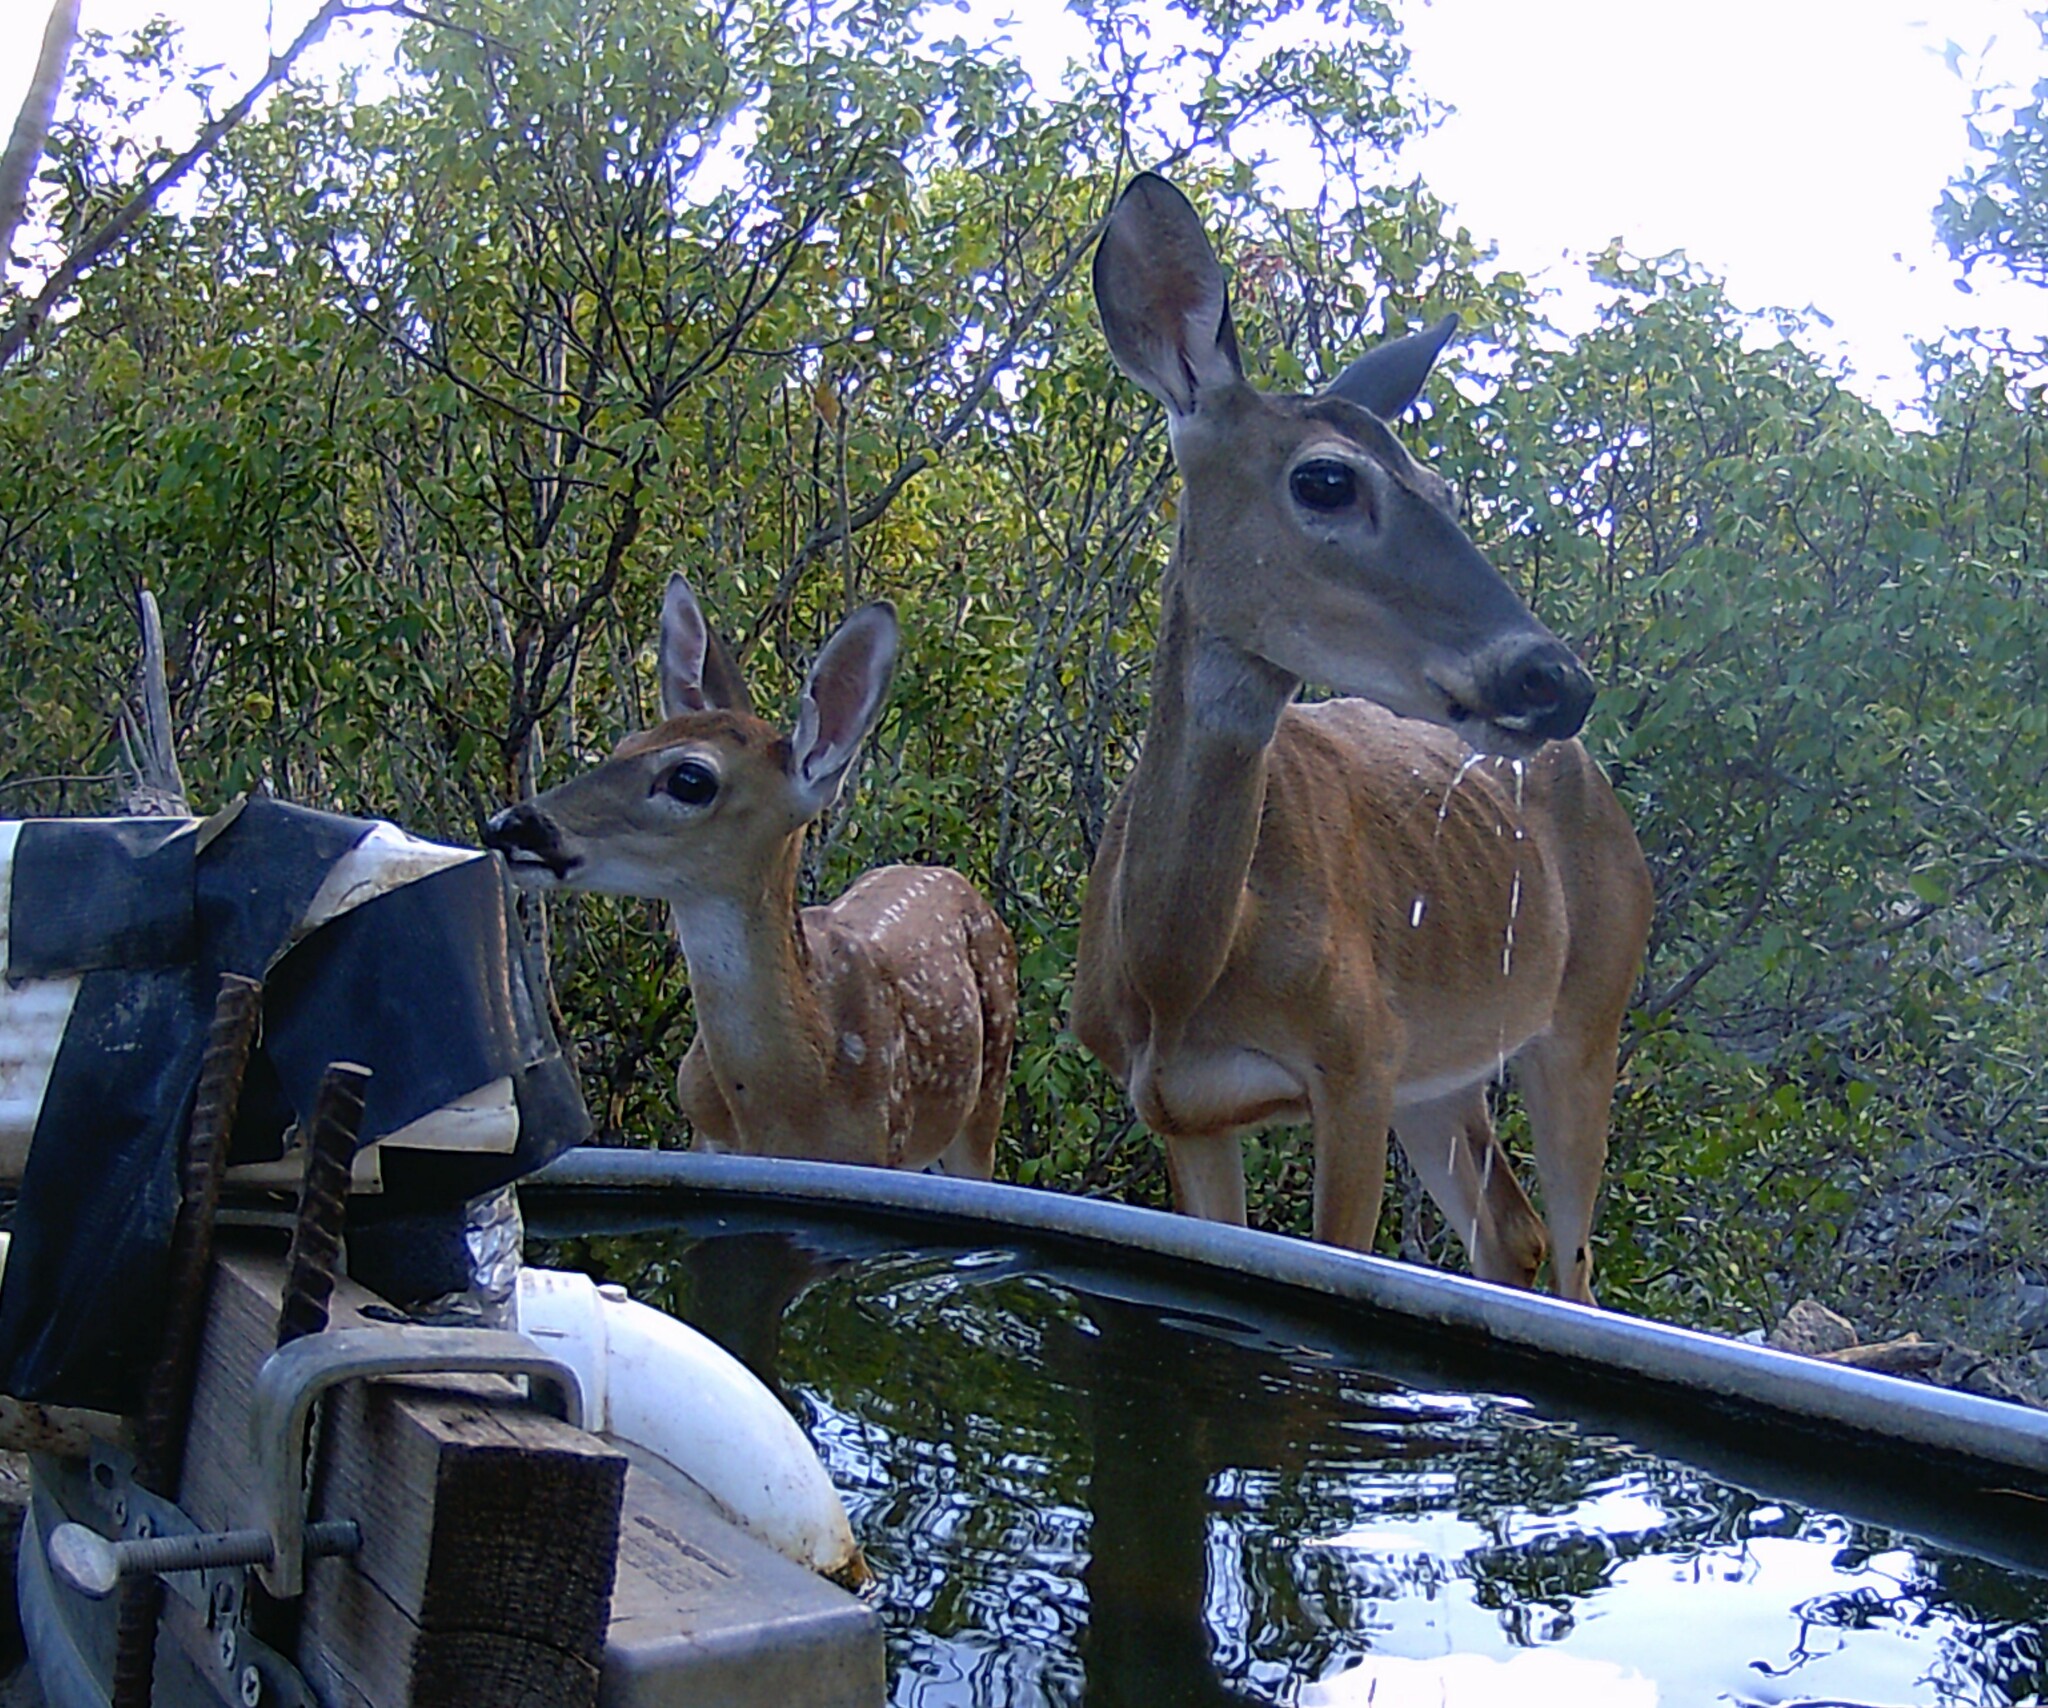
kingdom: Animalia
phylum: Chordata
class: Mammalia
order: Artiodactyla
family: Cervidae
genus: Odocoileus
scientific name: Odocoileus virginianus
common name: White-tailed deer
